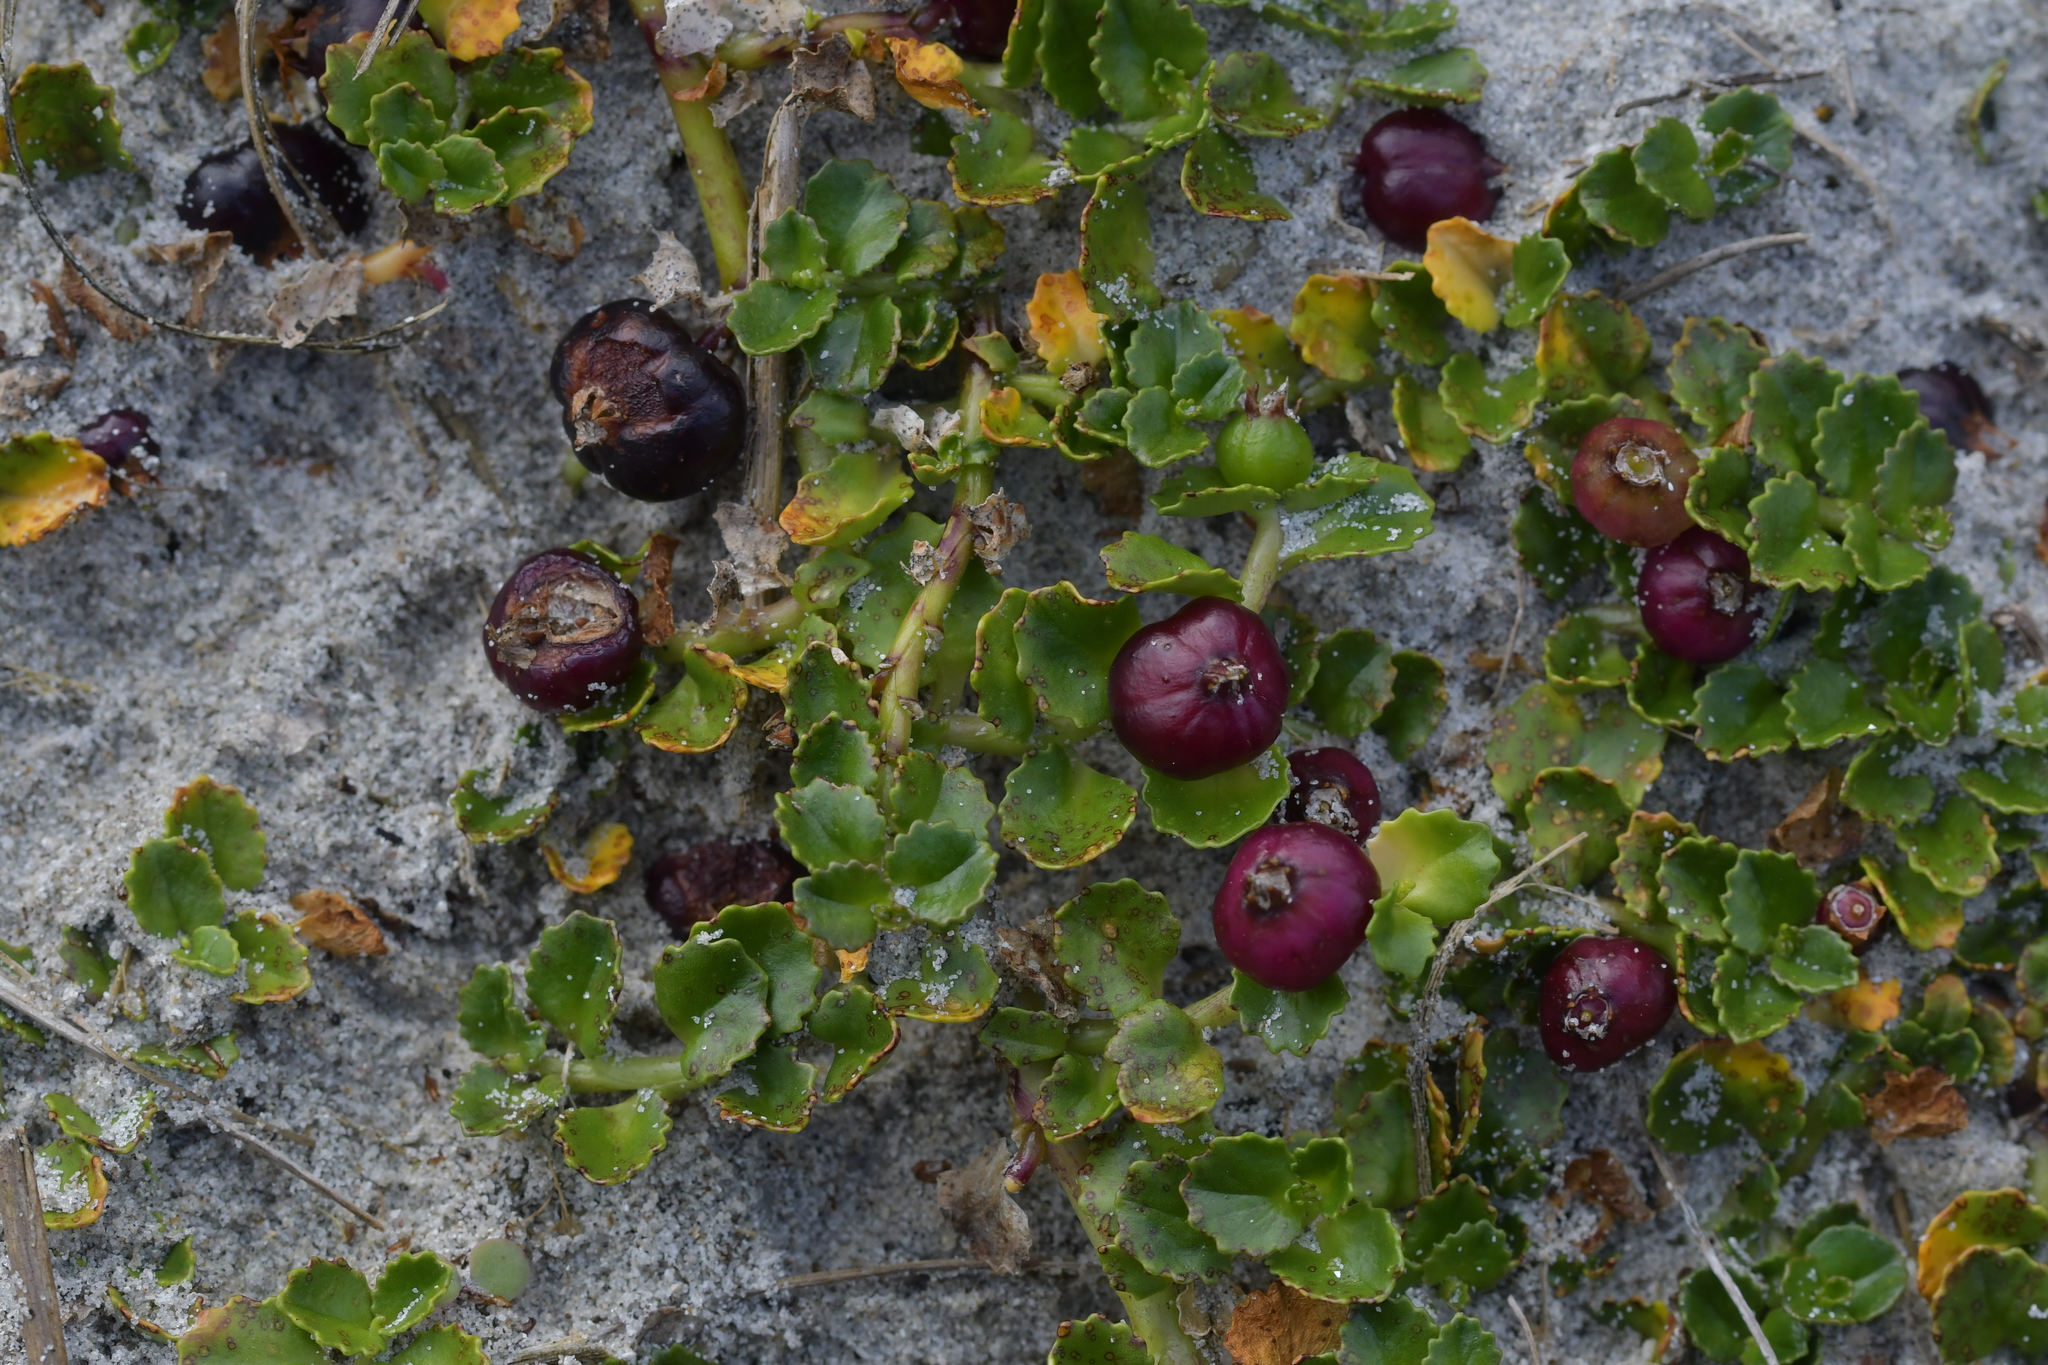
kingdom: Plantae
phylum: Tracheophyta
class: Magnoliopsida
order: Asterales
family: Campanulaceae
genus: Lobelia
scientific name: Lobelia arenaria
